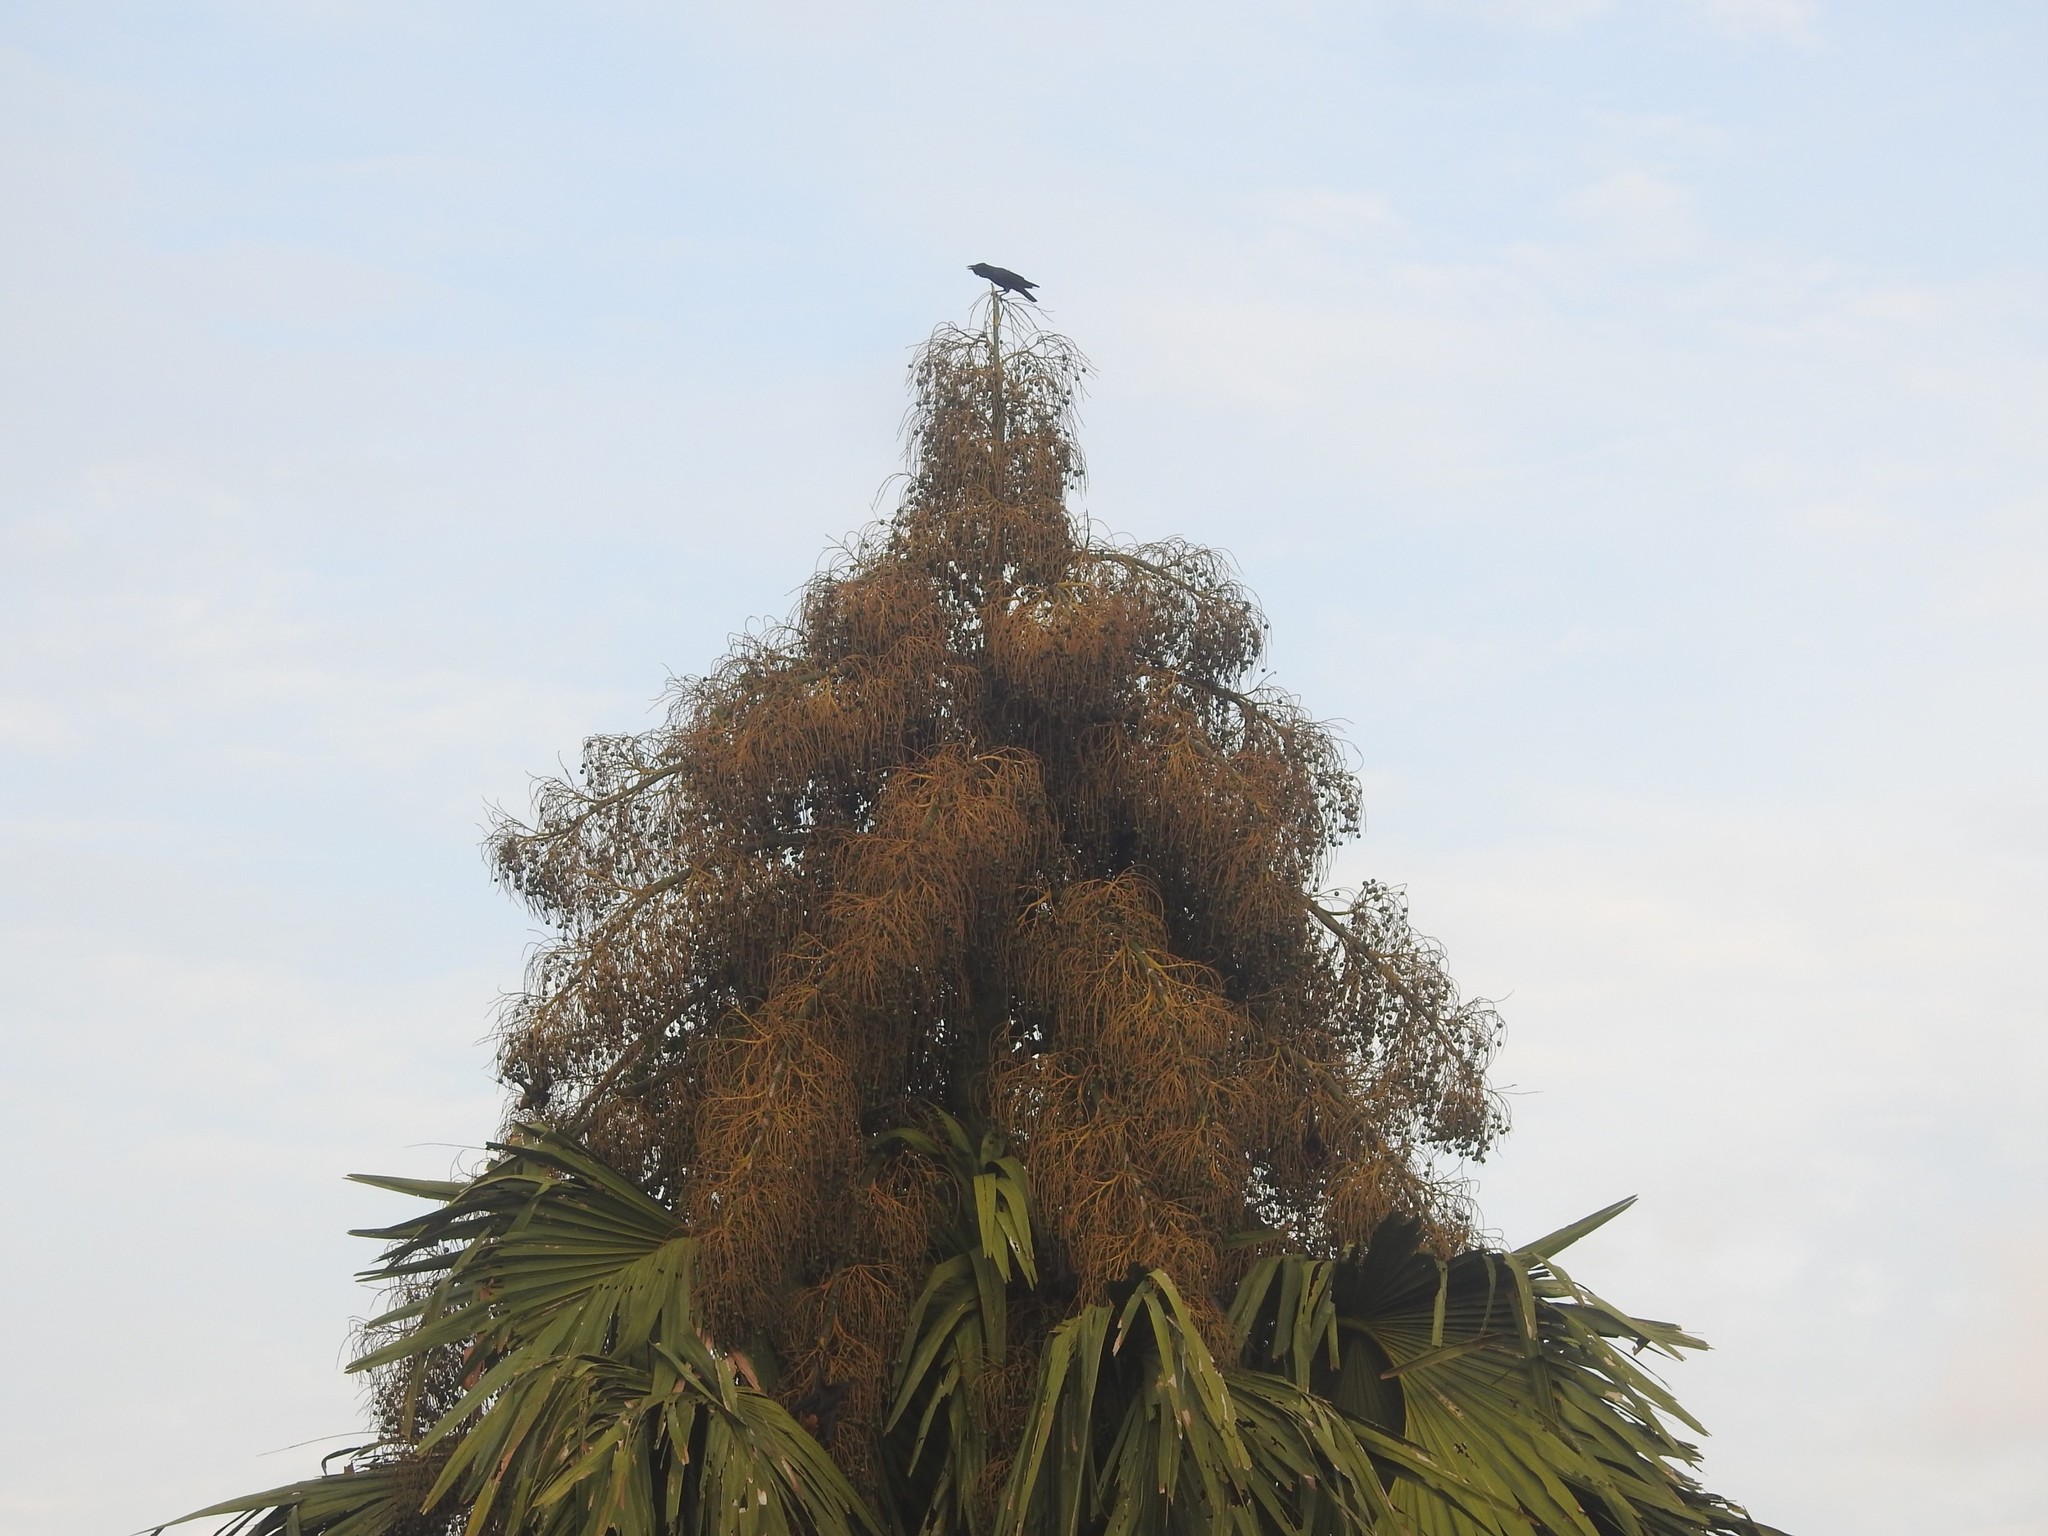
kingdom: Animalia
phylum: Chordata
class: Aves
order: Passeriformes
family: Corvidae
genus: Corvus
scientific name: Corvus macrorhynchos
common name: Large-billed crow
